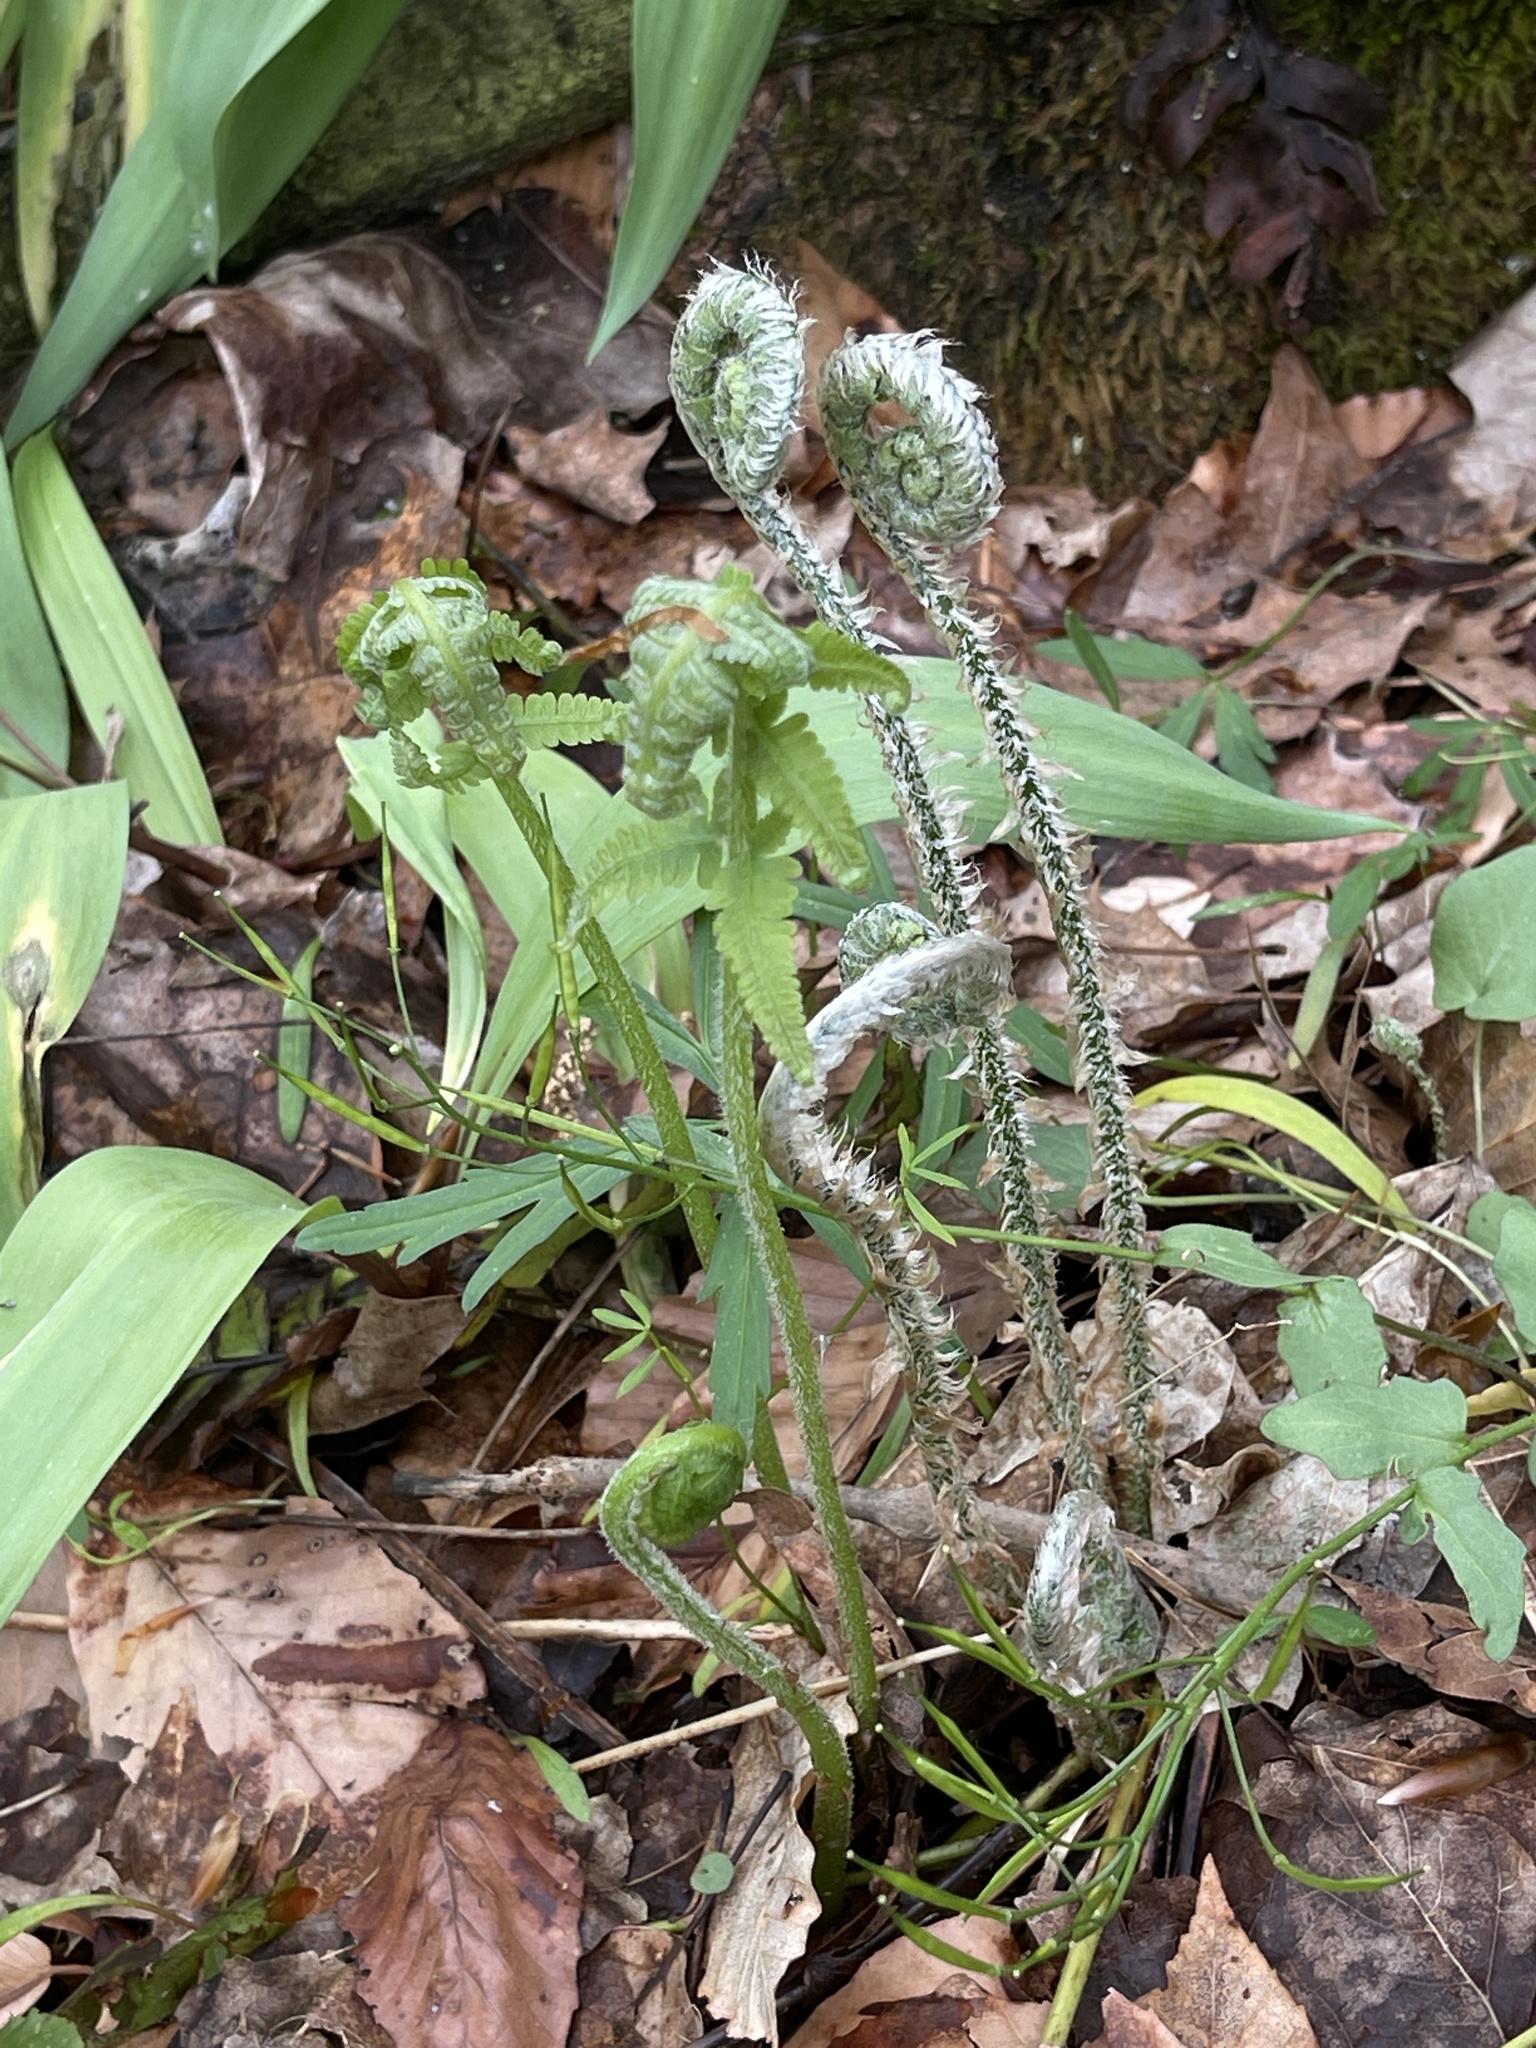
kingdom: Plantae
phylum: Tracheophyta
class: Polypodiopsida
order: Polypodiales
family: Athyriaceae
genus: Deparia
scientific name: Deparia acrostichoides
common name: Silver false spleenwort
